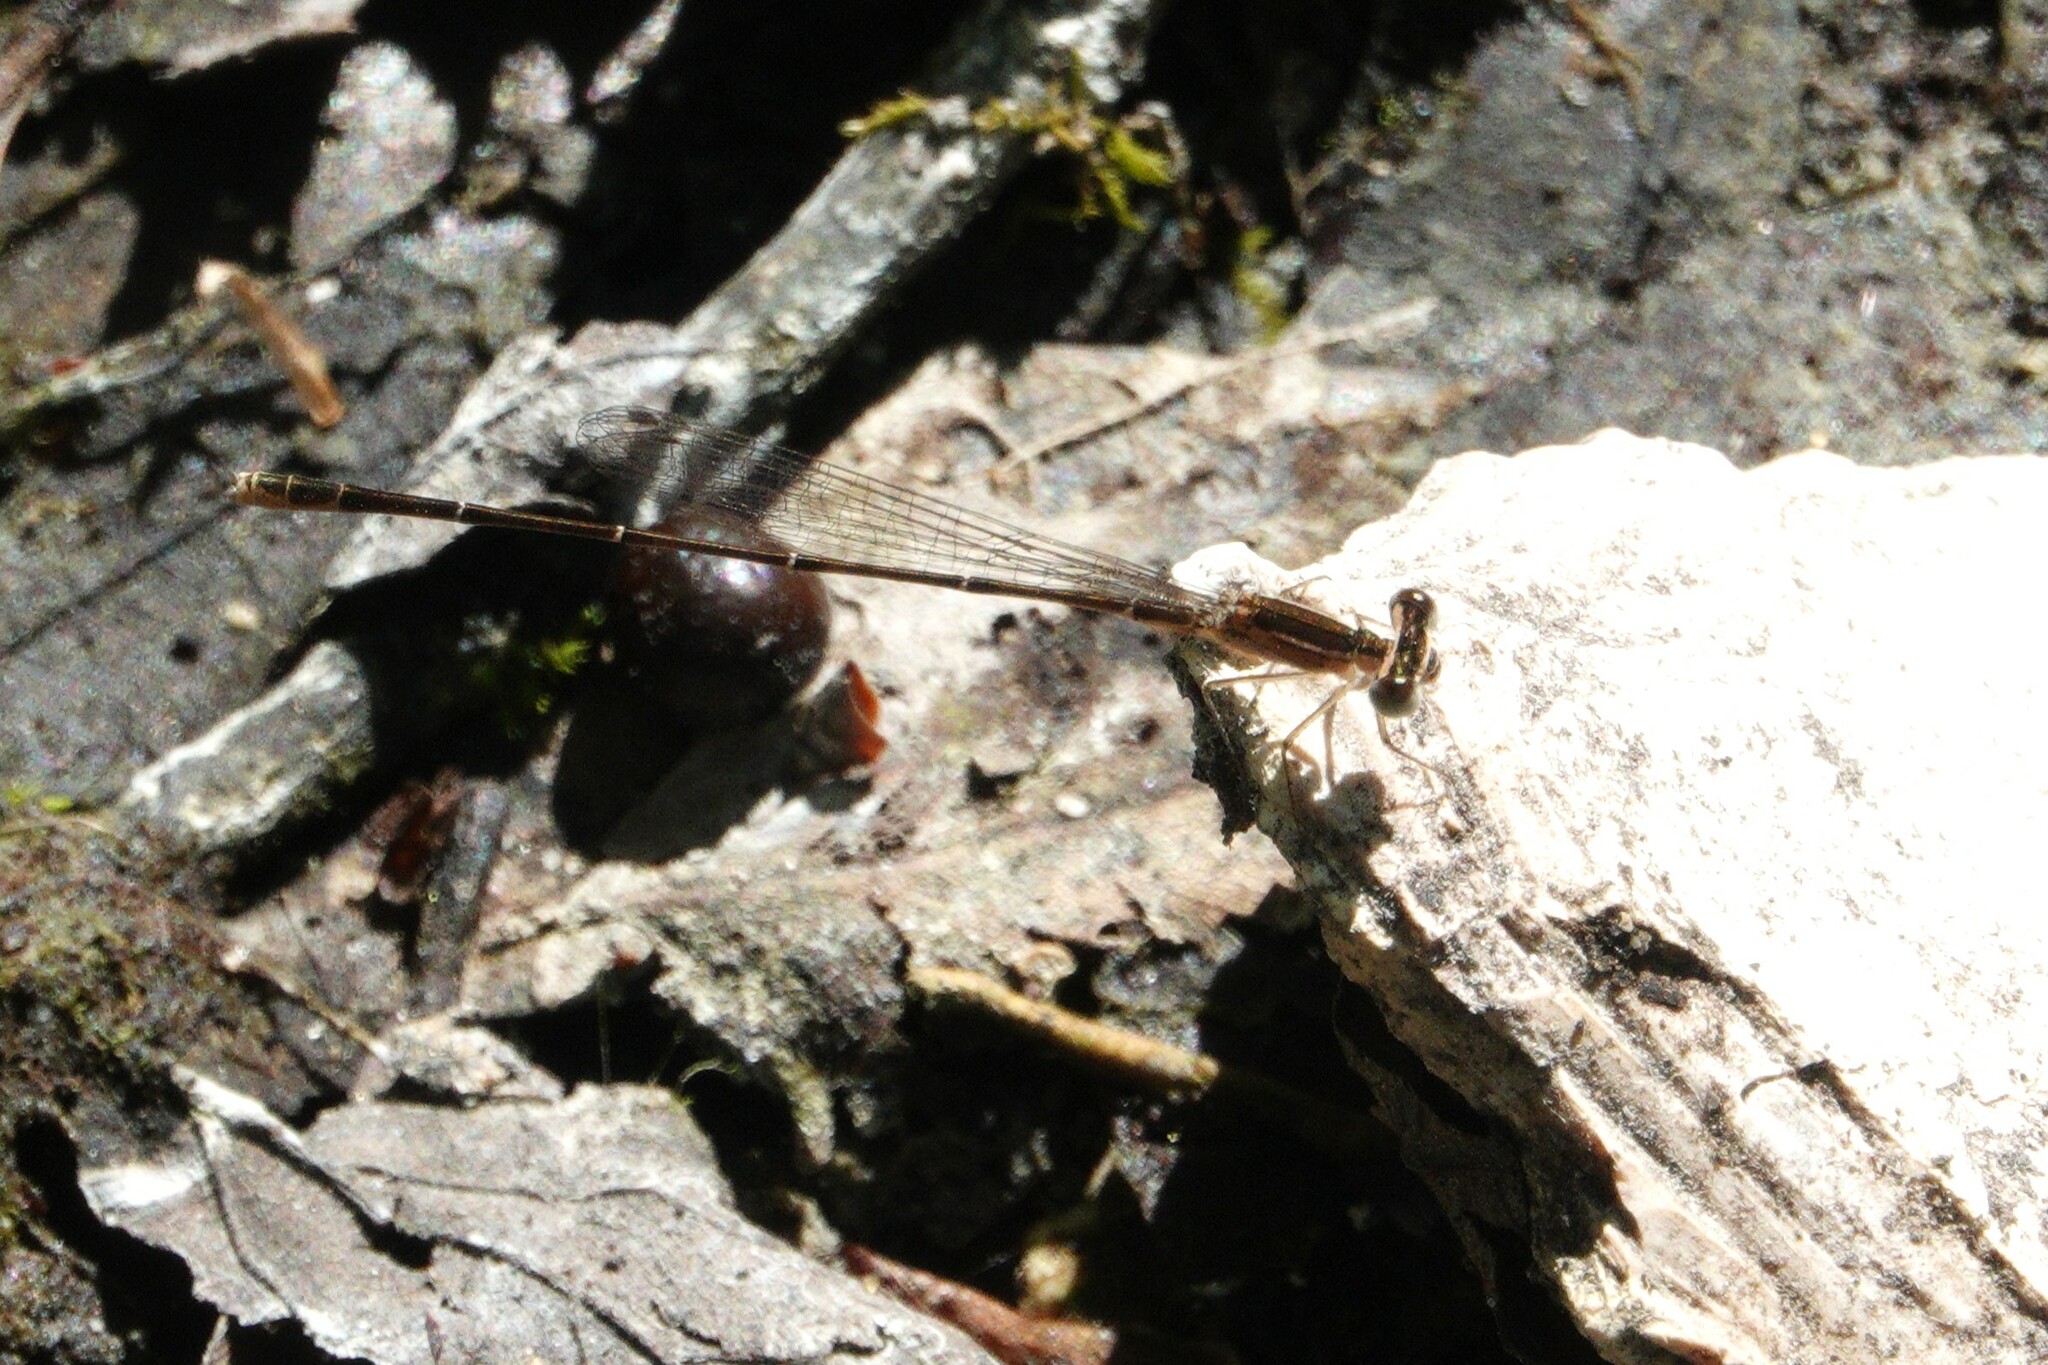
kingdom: Animalia
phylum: Arthropoda
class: Insecta
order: Odonata
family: Coenagrionidae
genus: Nehalennia
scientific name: Nehalennia pallidula
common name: Everglades sprite
